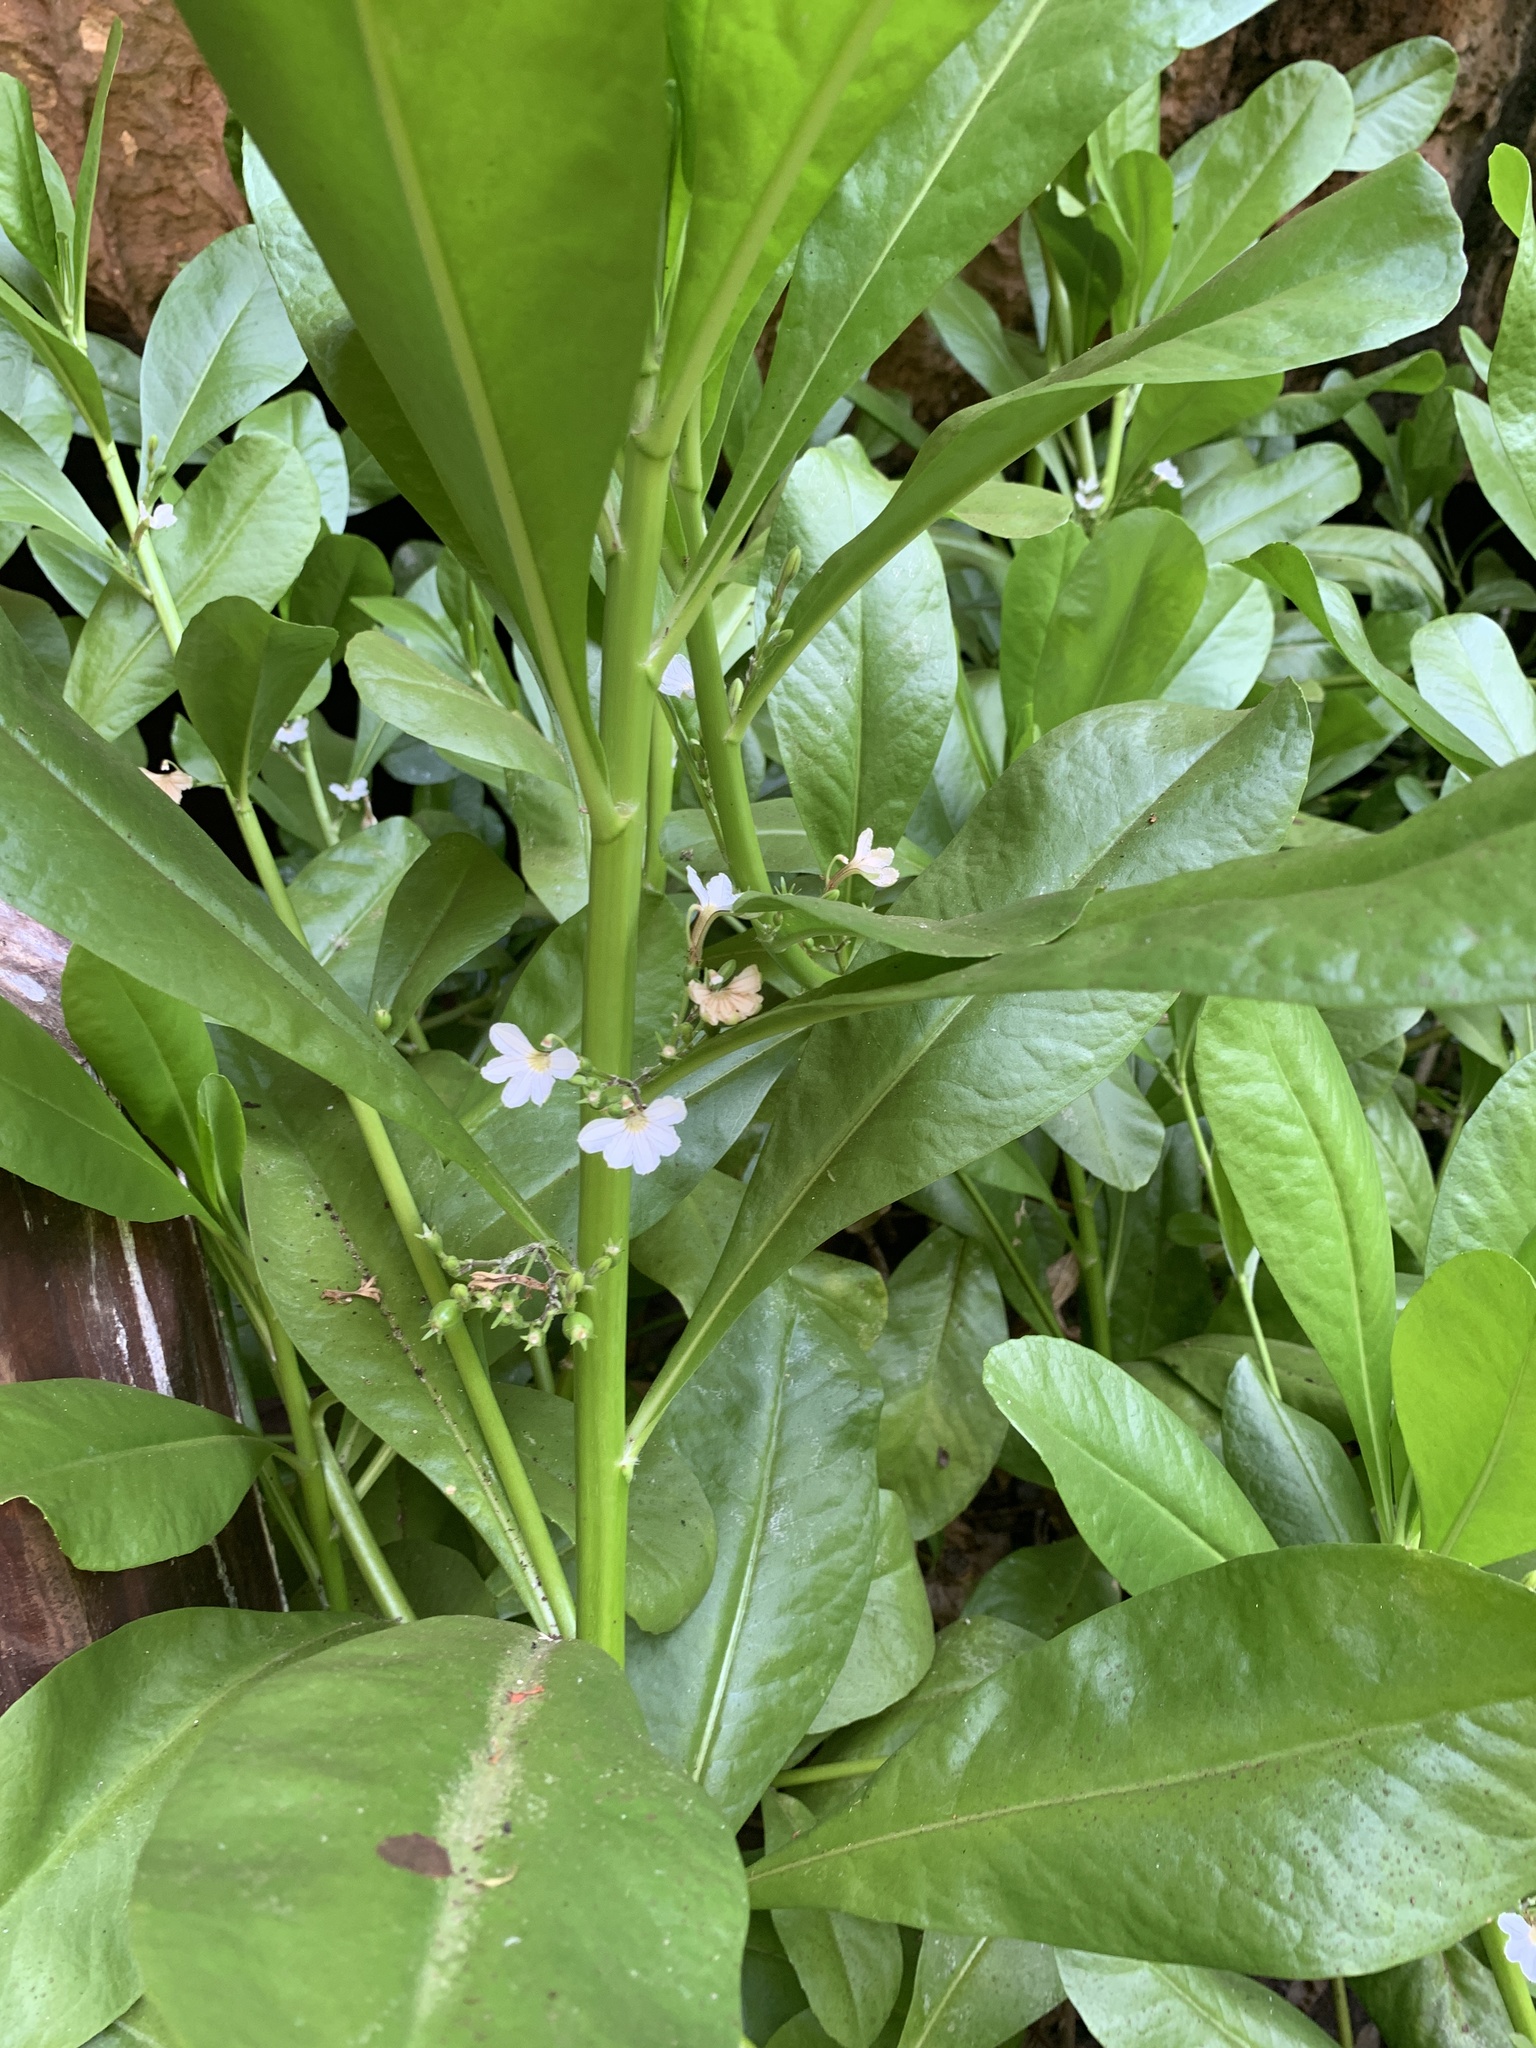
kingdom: Plantae
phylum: Tracheophyta
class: Magnoliopsida
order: Asterales
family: Goodeniaceae
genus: Scaevola
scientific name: Scaevola taccada
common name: Sea lettucetree
